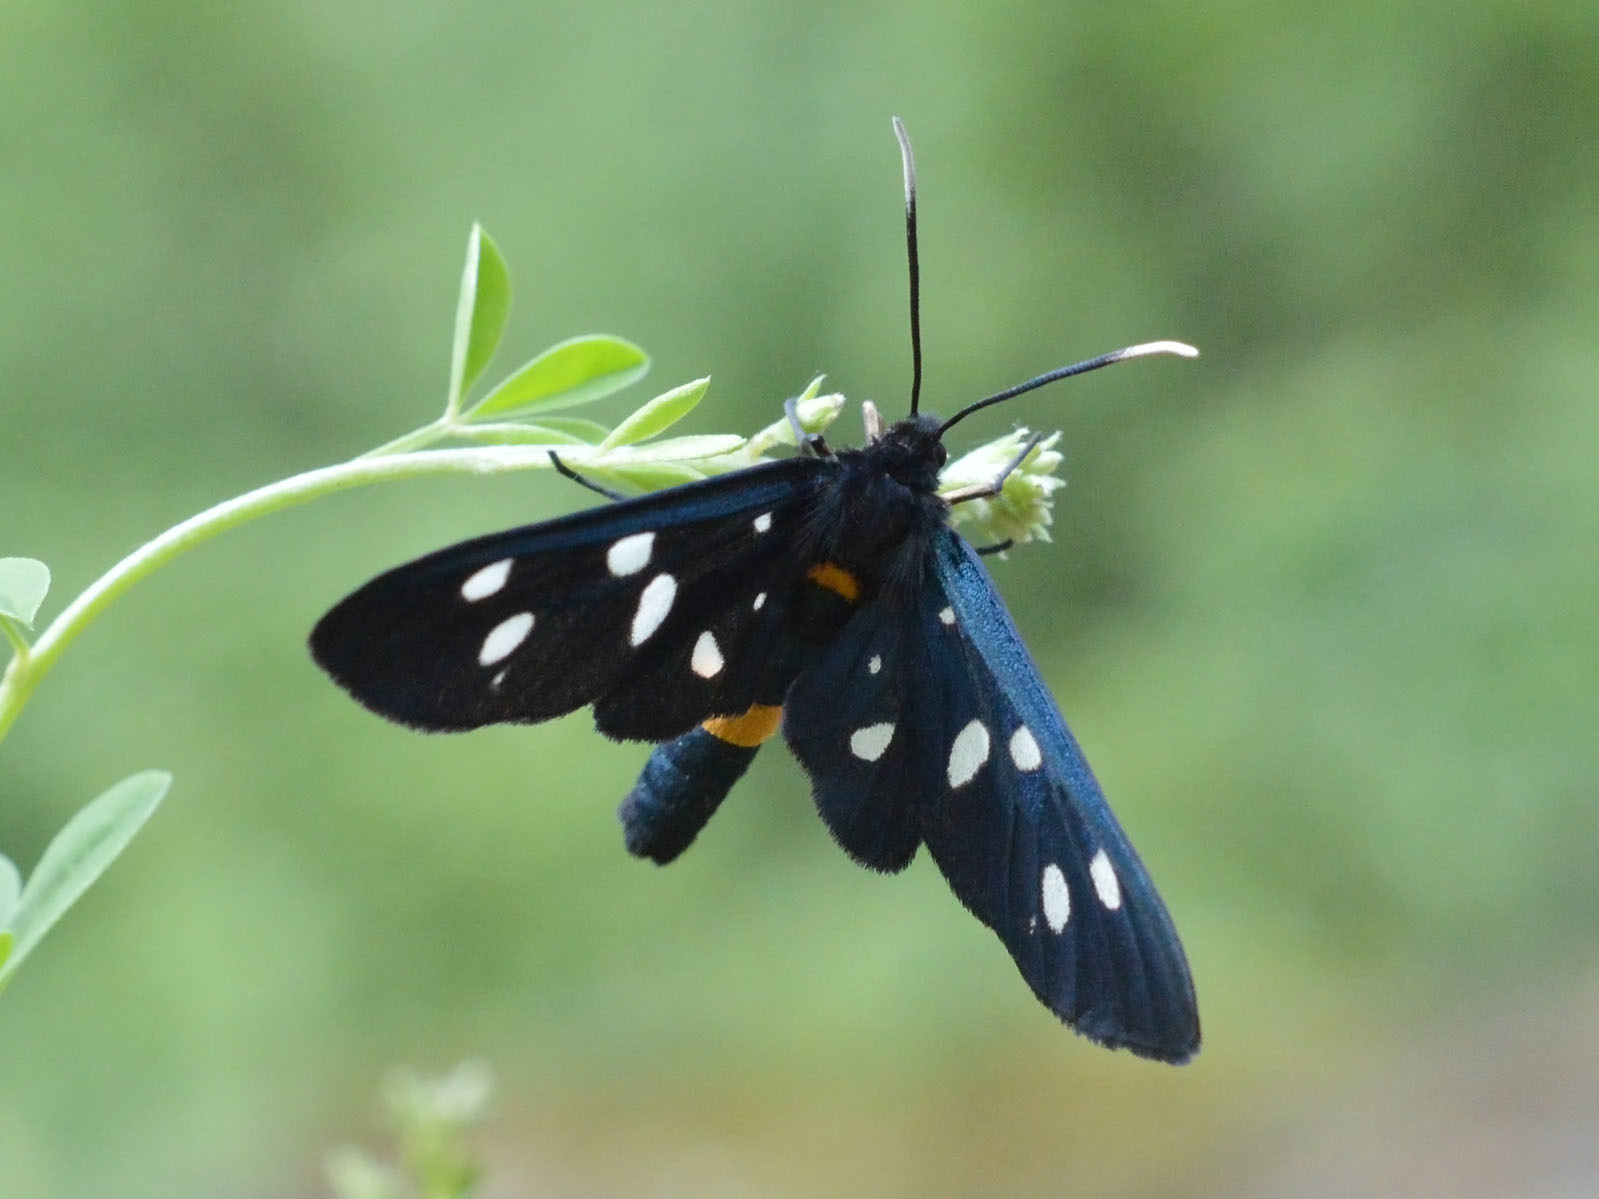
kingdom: Animalia
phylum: Arthropoda
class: Insecta
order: Lepidoptera
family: Erebidae
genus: Amata
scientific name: Amata phegea
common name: Nine-spotted
